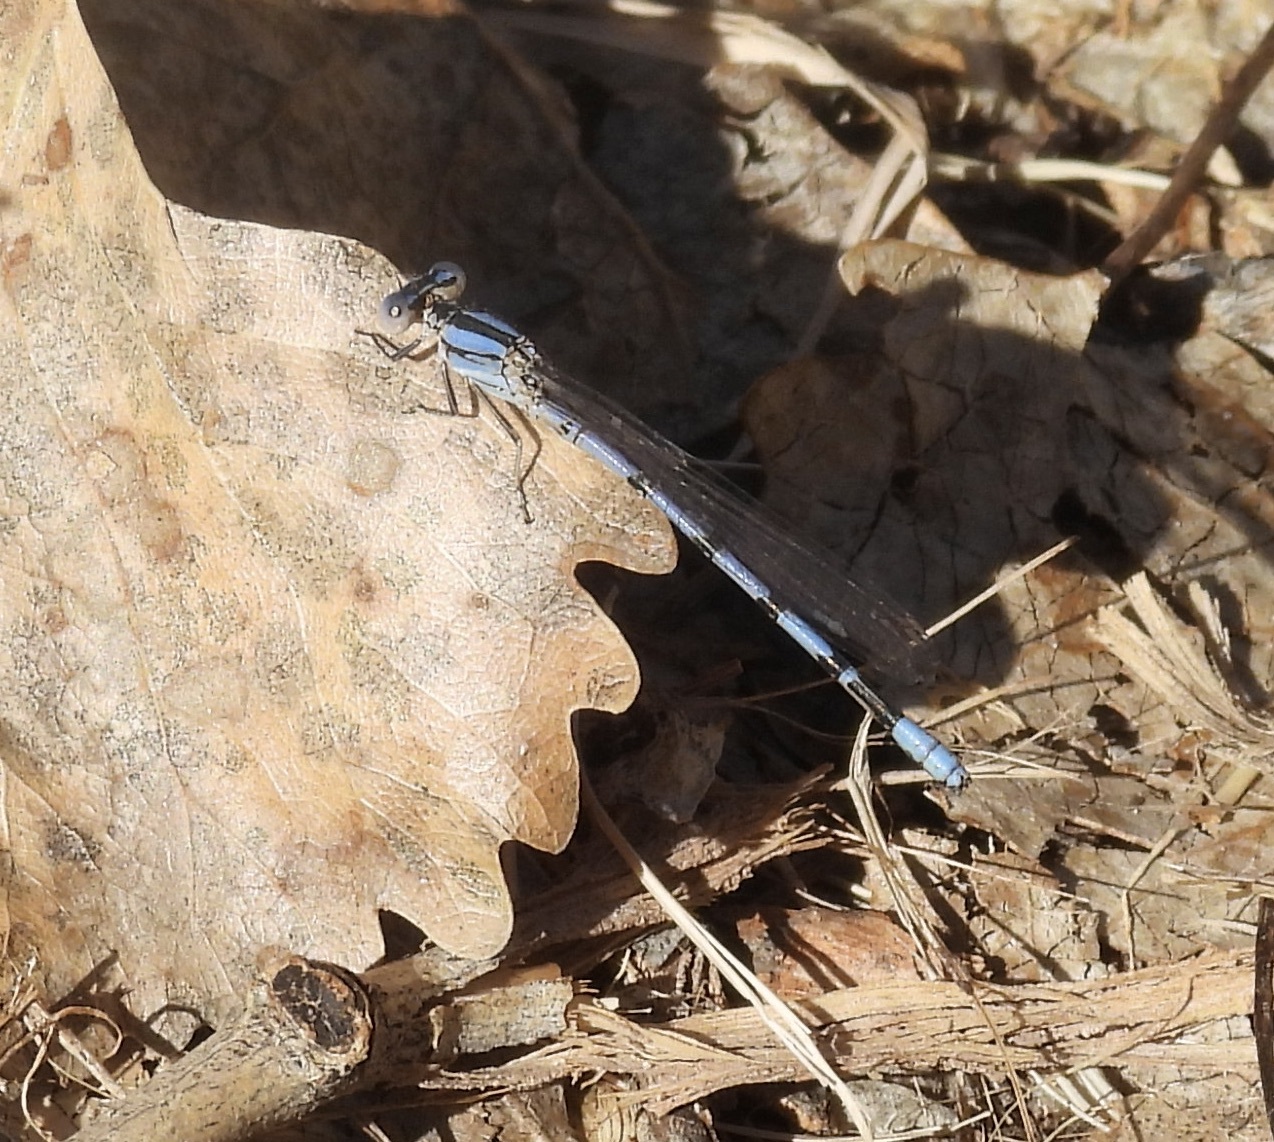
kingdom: Animalia
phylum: Arthropoda
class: Insecta
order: Odonata
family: Coenagrionidae
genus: Argia
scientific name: Argia nahuana
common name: Aztec dancer
